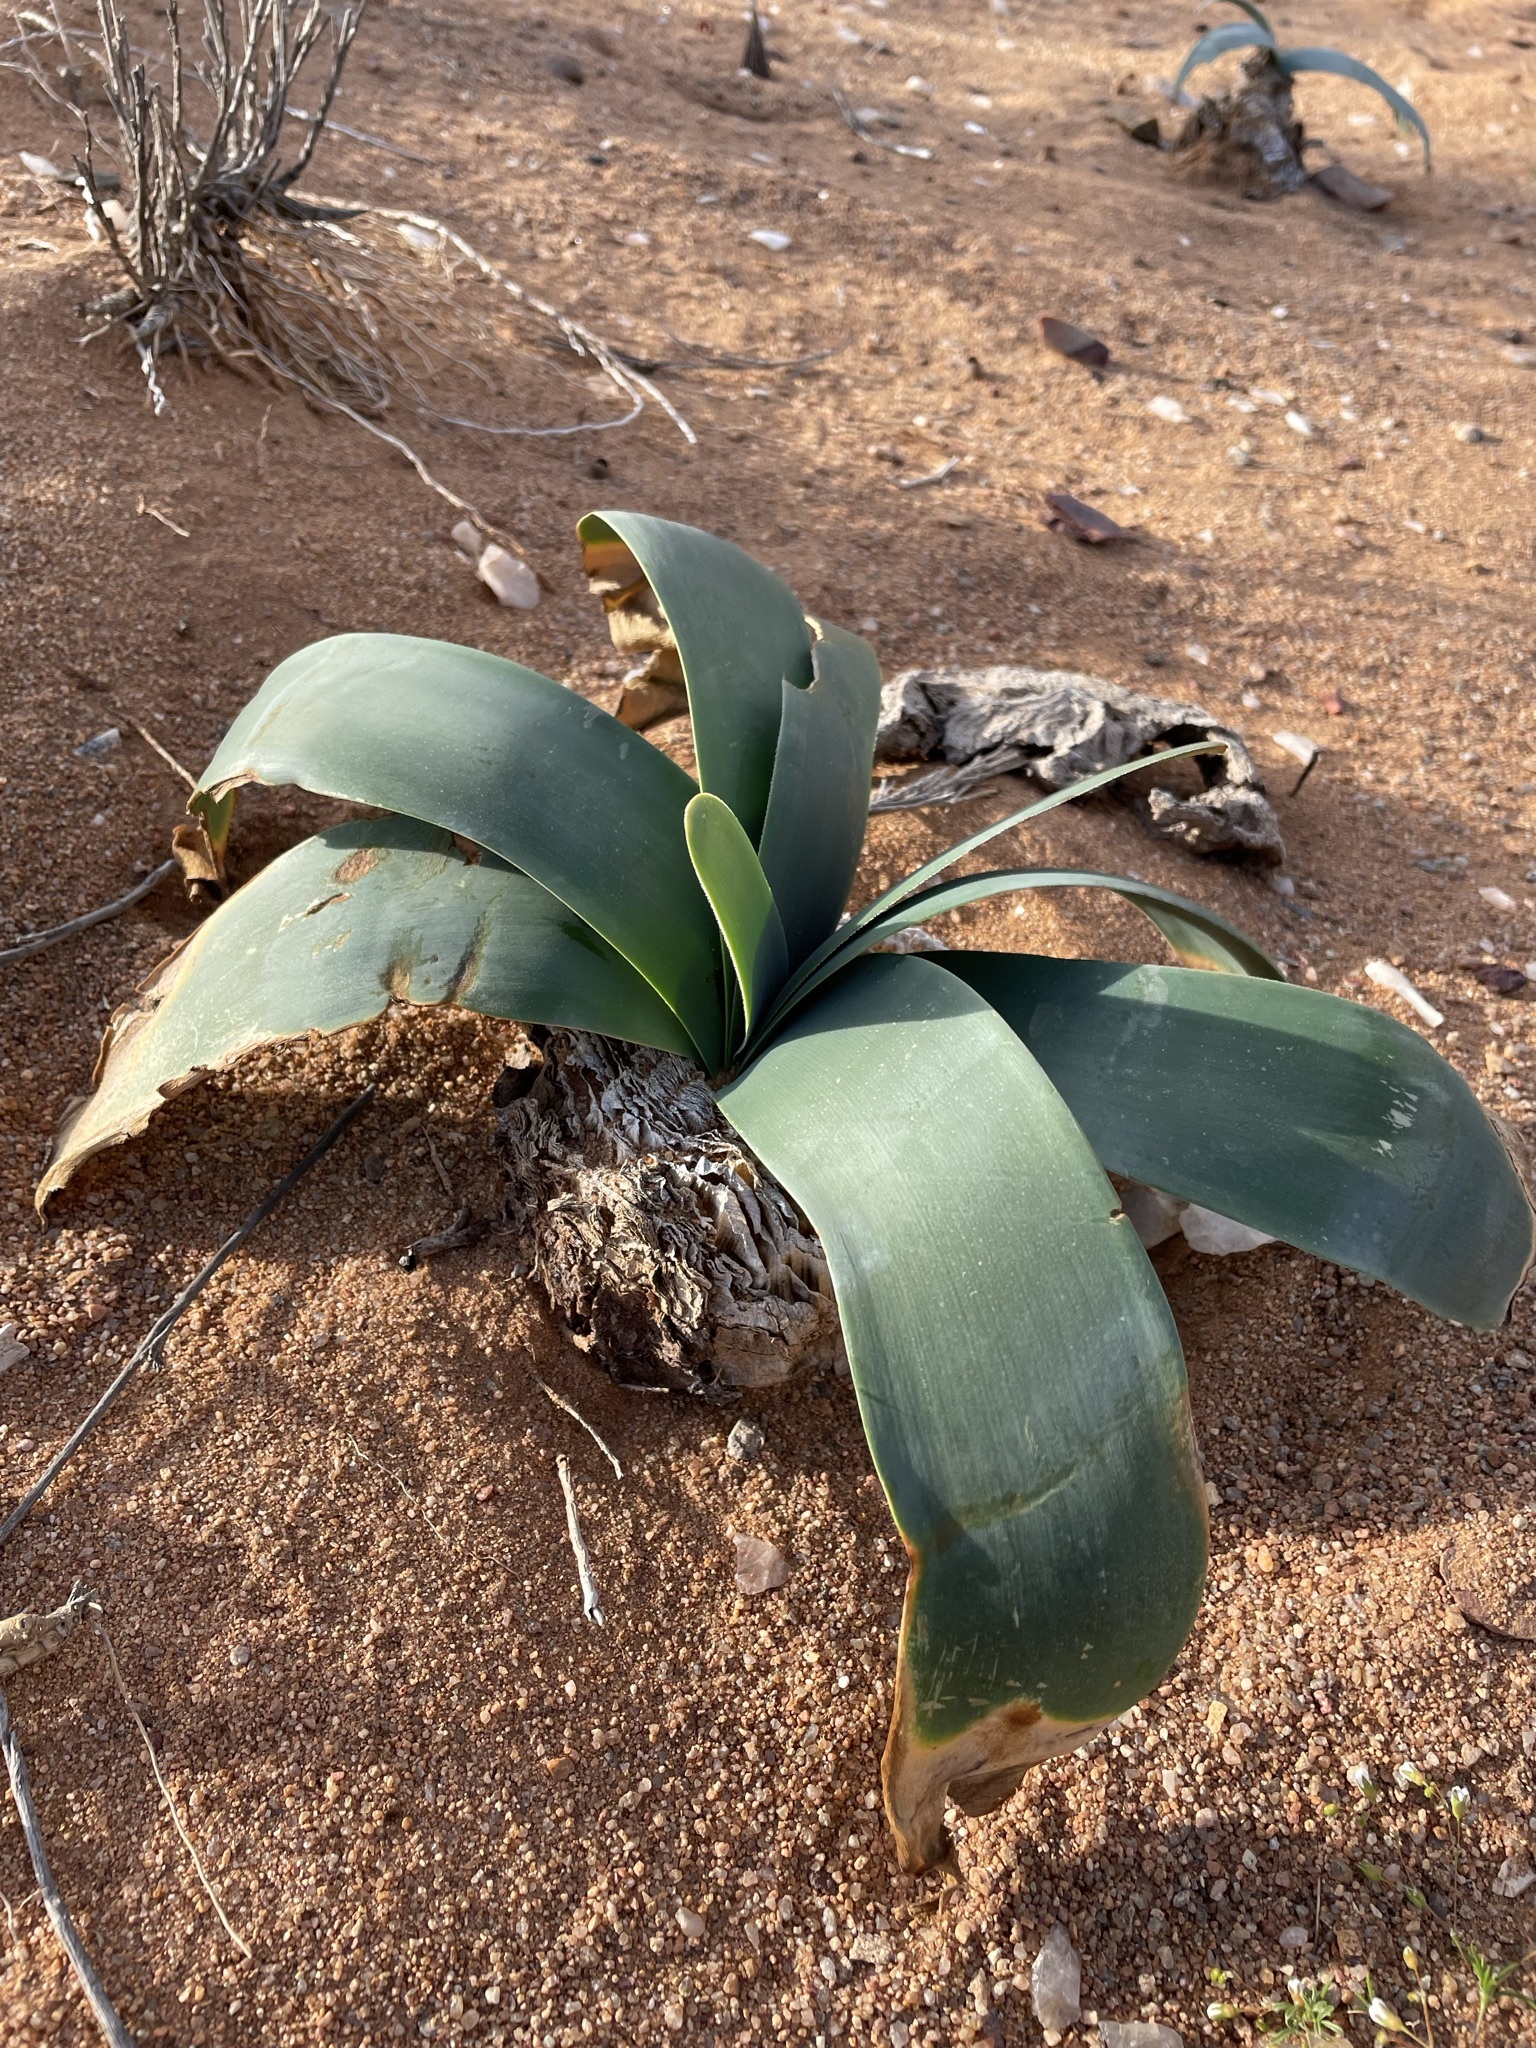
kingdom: Plantae
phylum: Tracheophyta
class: Liliopsida
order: Asparagales
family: Amaryllidaceae
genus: Brunsvigia
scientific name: Brunsvigia herrei
